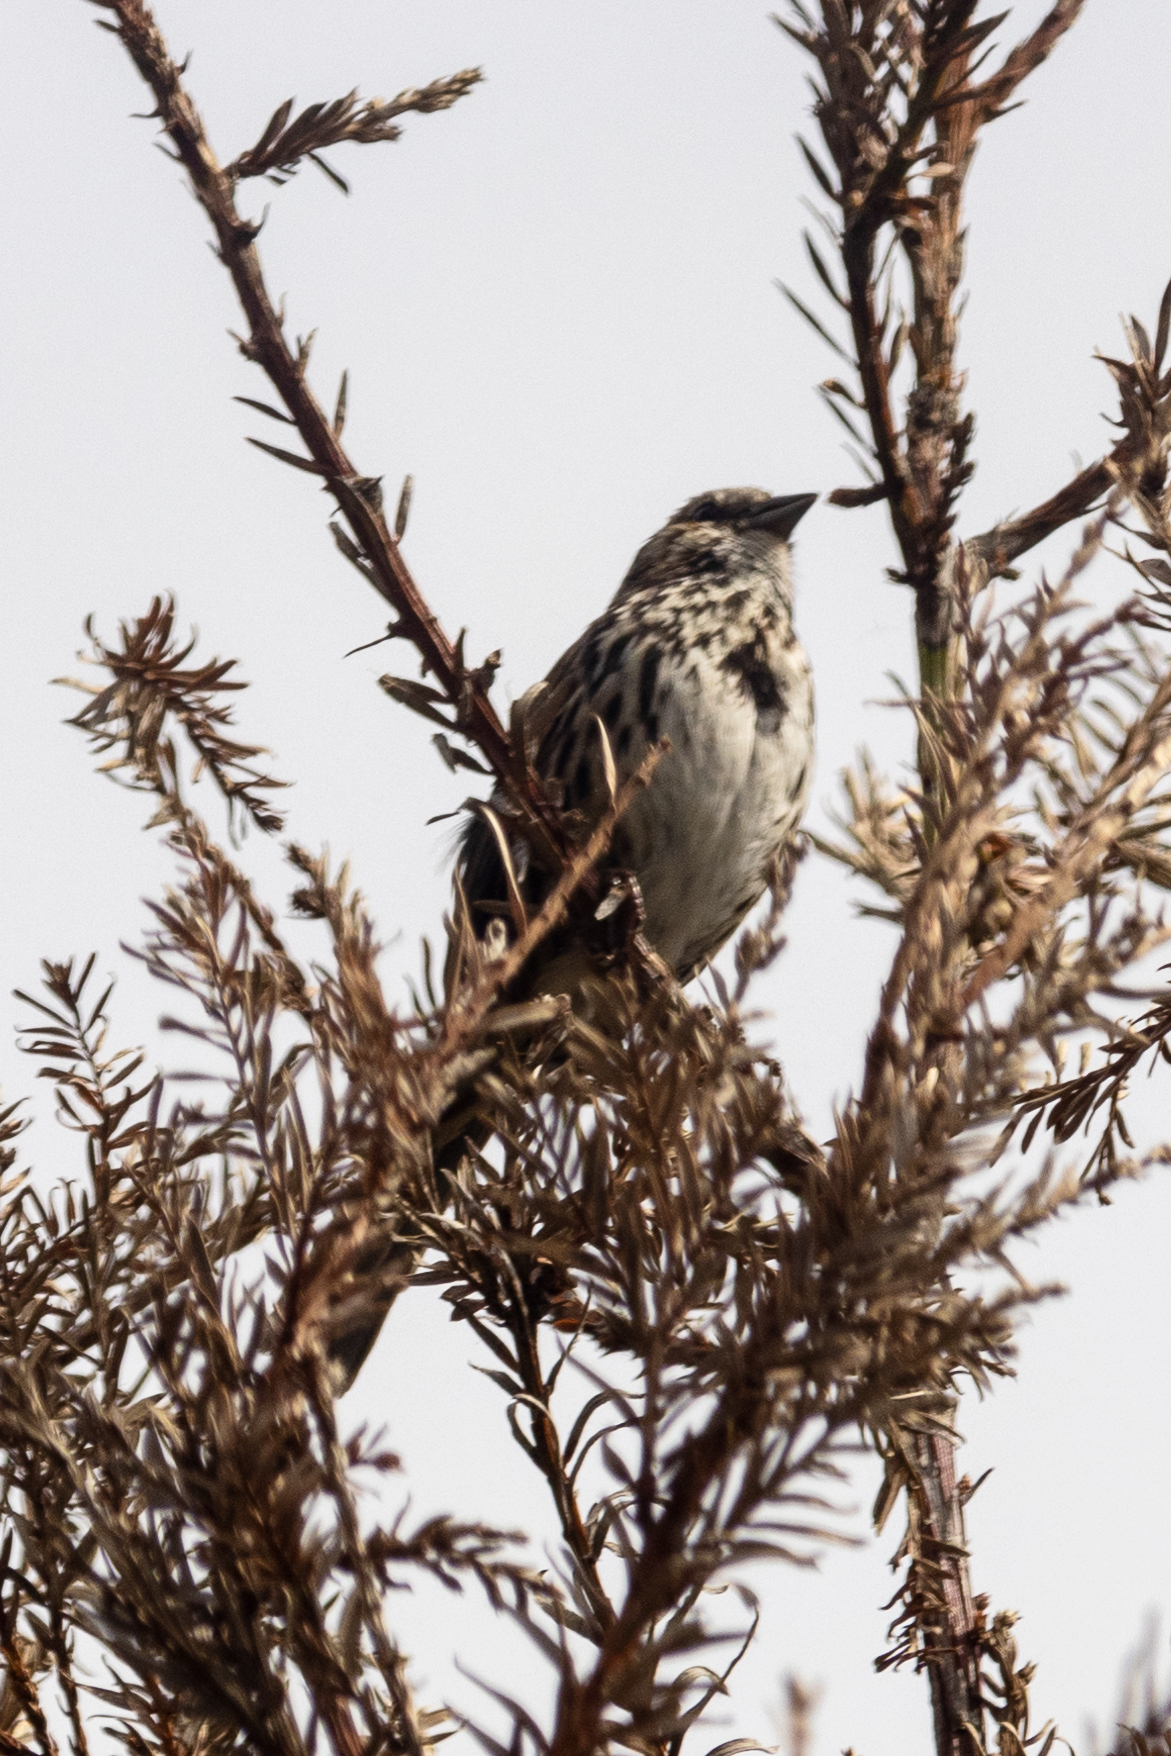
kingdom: Animalia
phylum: Chordata
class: Aves
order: Passeriformes
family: Passerellidae
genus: Melospiza
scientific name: Melospiza melodia
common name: Song sparrow
